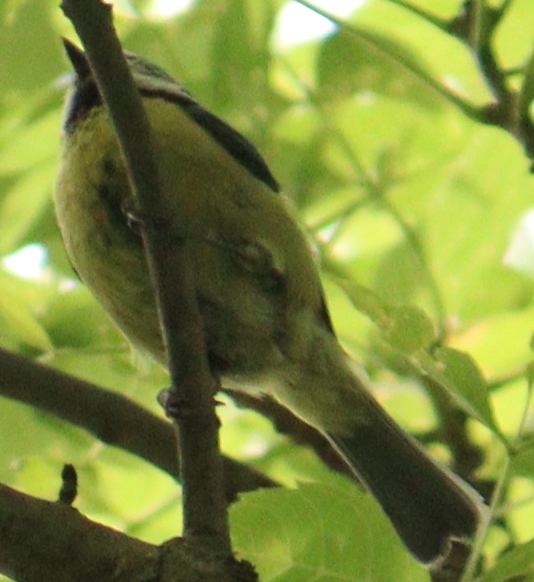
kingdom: Animalia
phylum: Chordata
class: Aves
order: Passeriformes
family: Paridae
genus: Cyanistes
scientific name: Cyanistes caeruleus
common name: Eurasian blue tit
